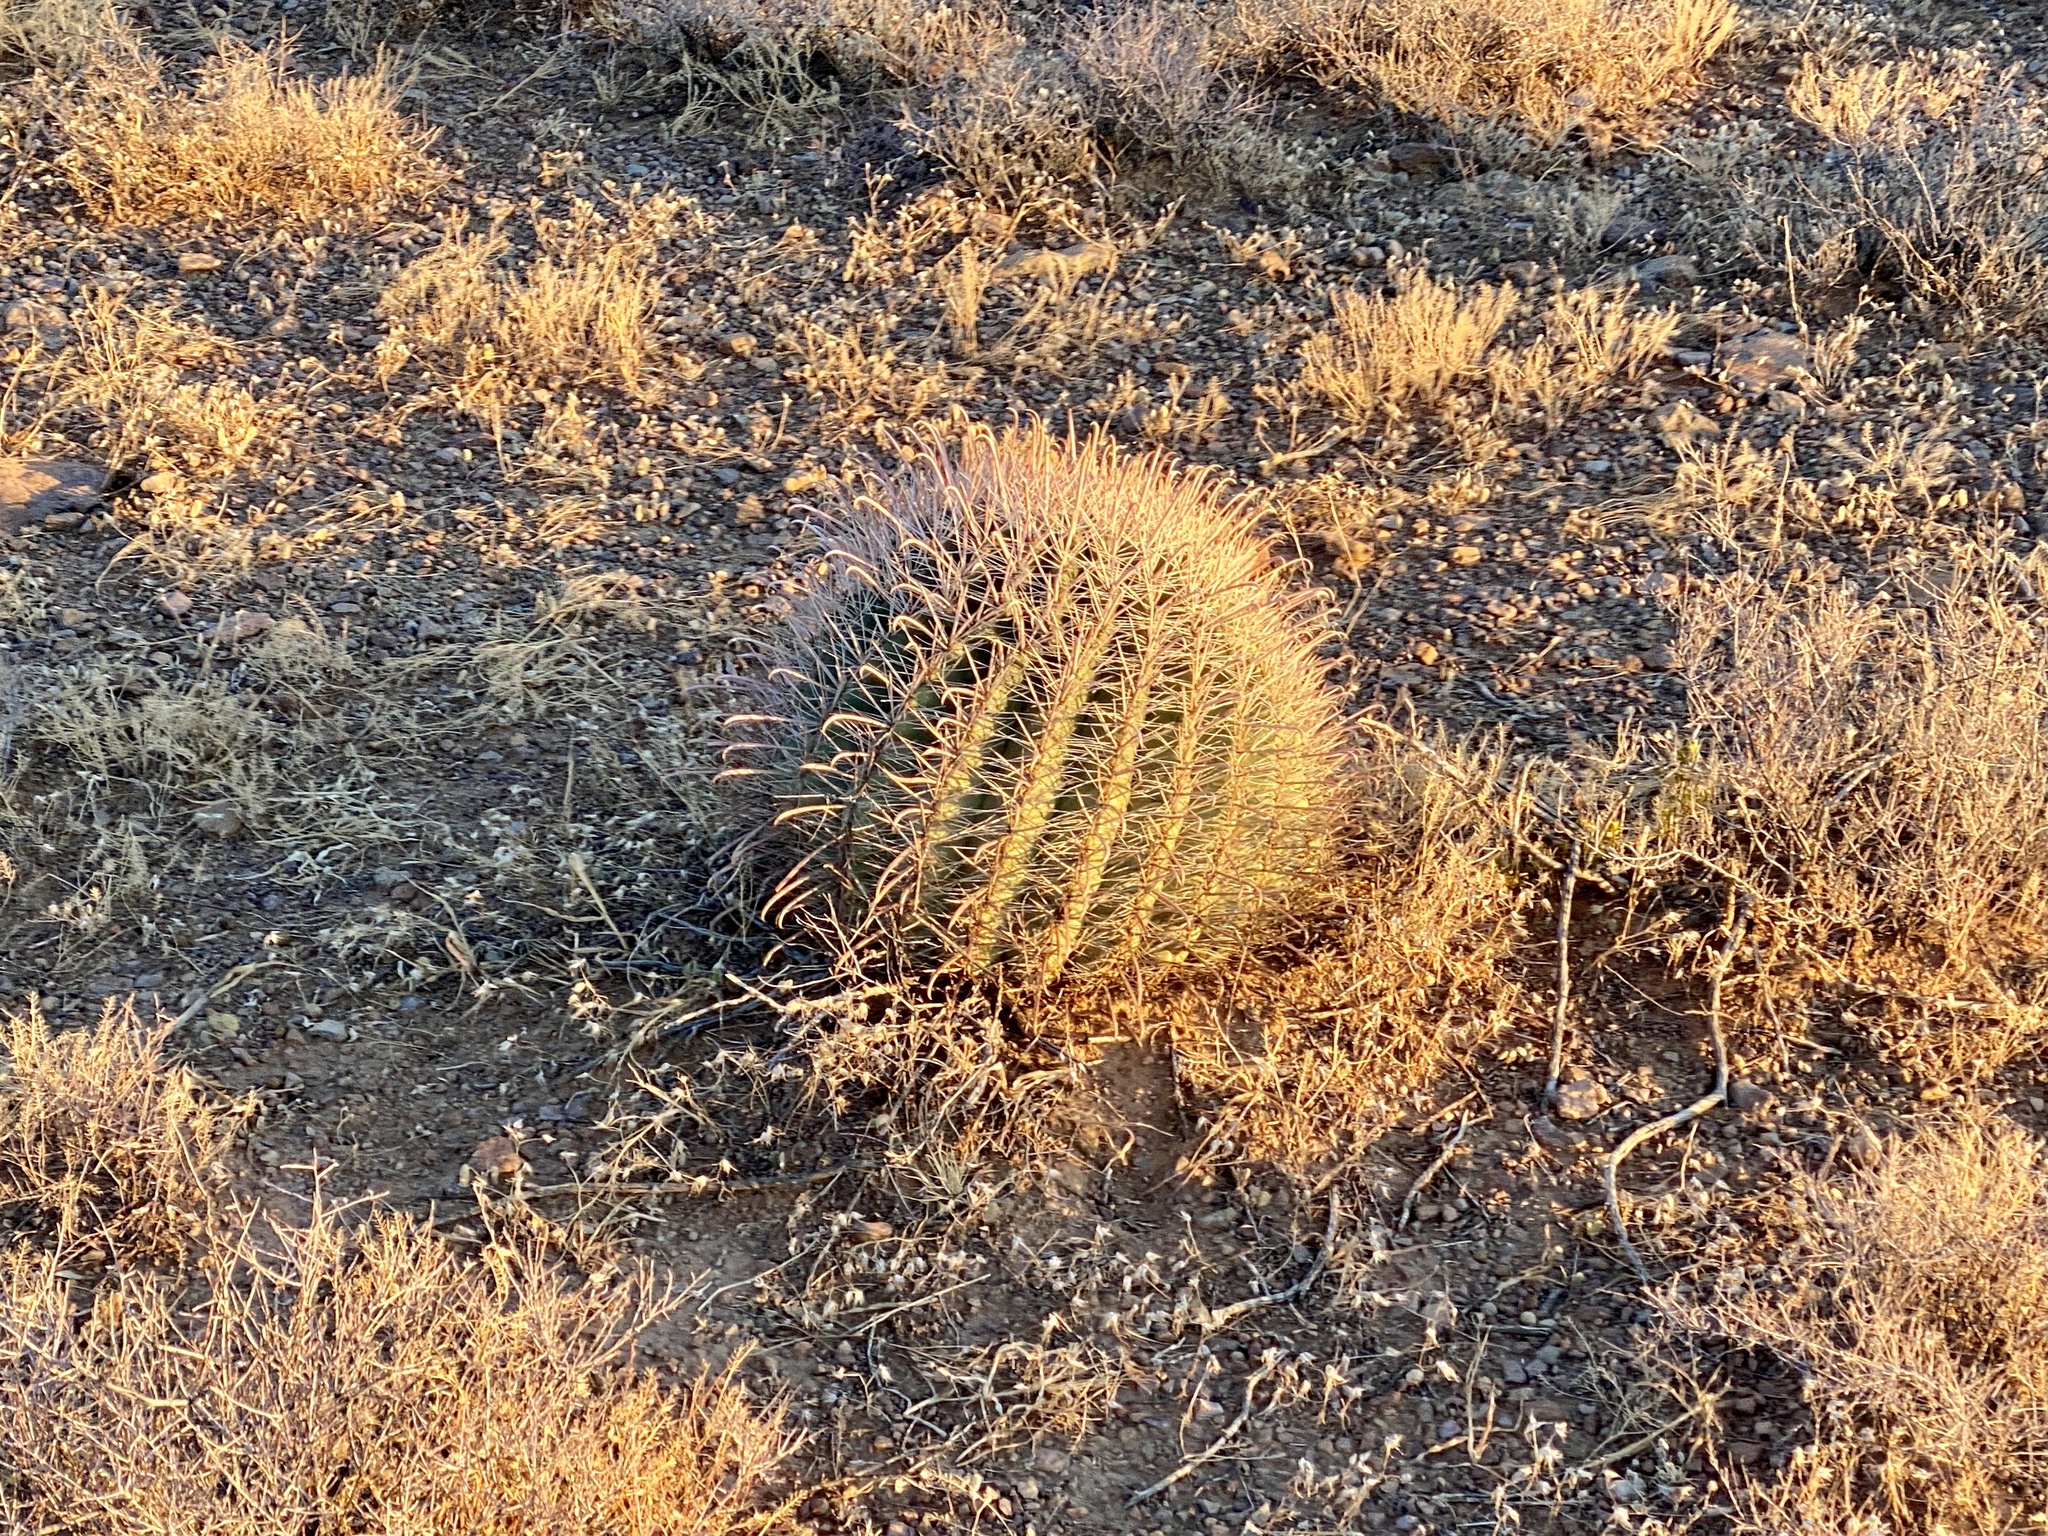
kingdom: Plantae
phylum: Tracheophyta
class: Magnoliopsida
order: Caryophyllales
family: Cactaceae
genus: Ferocactus
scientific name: Ferocactus wislizeni
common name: Candy barrel cactus
